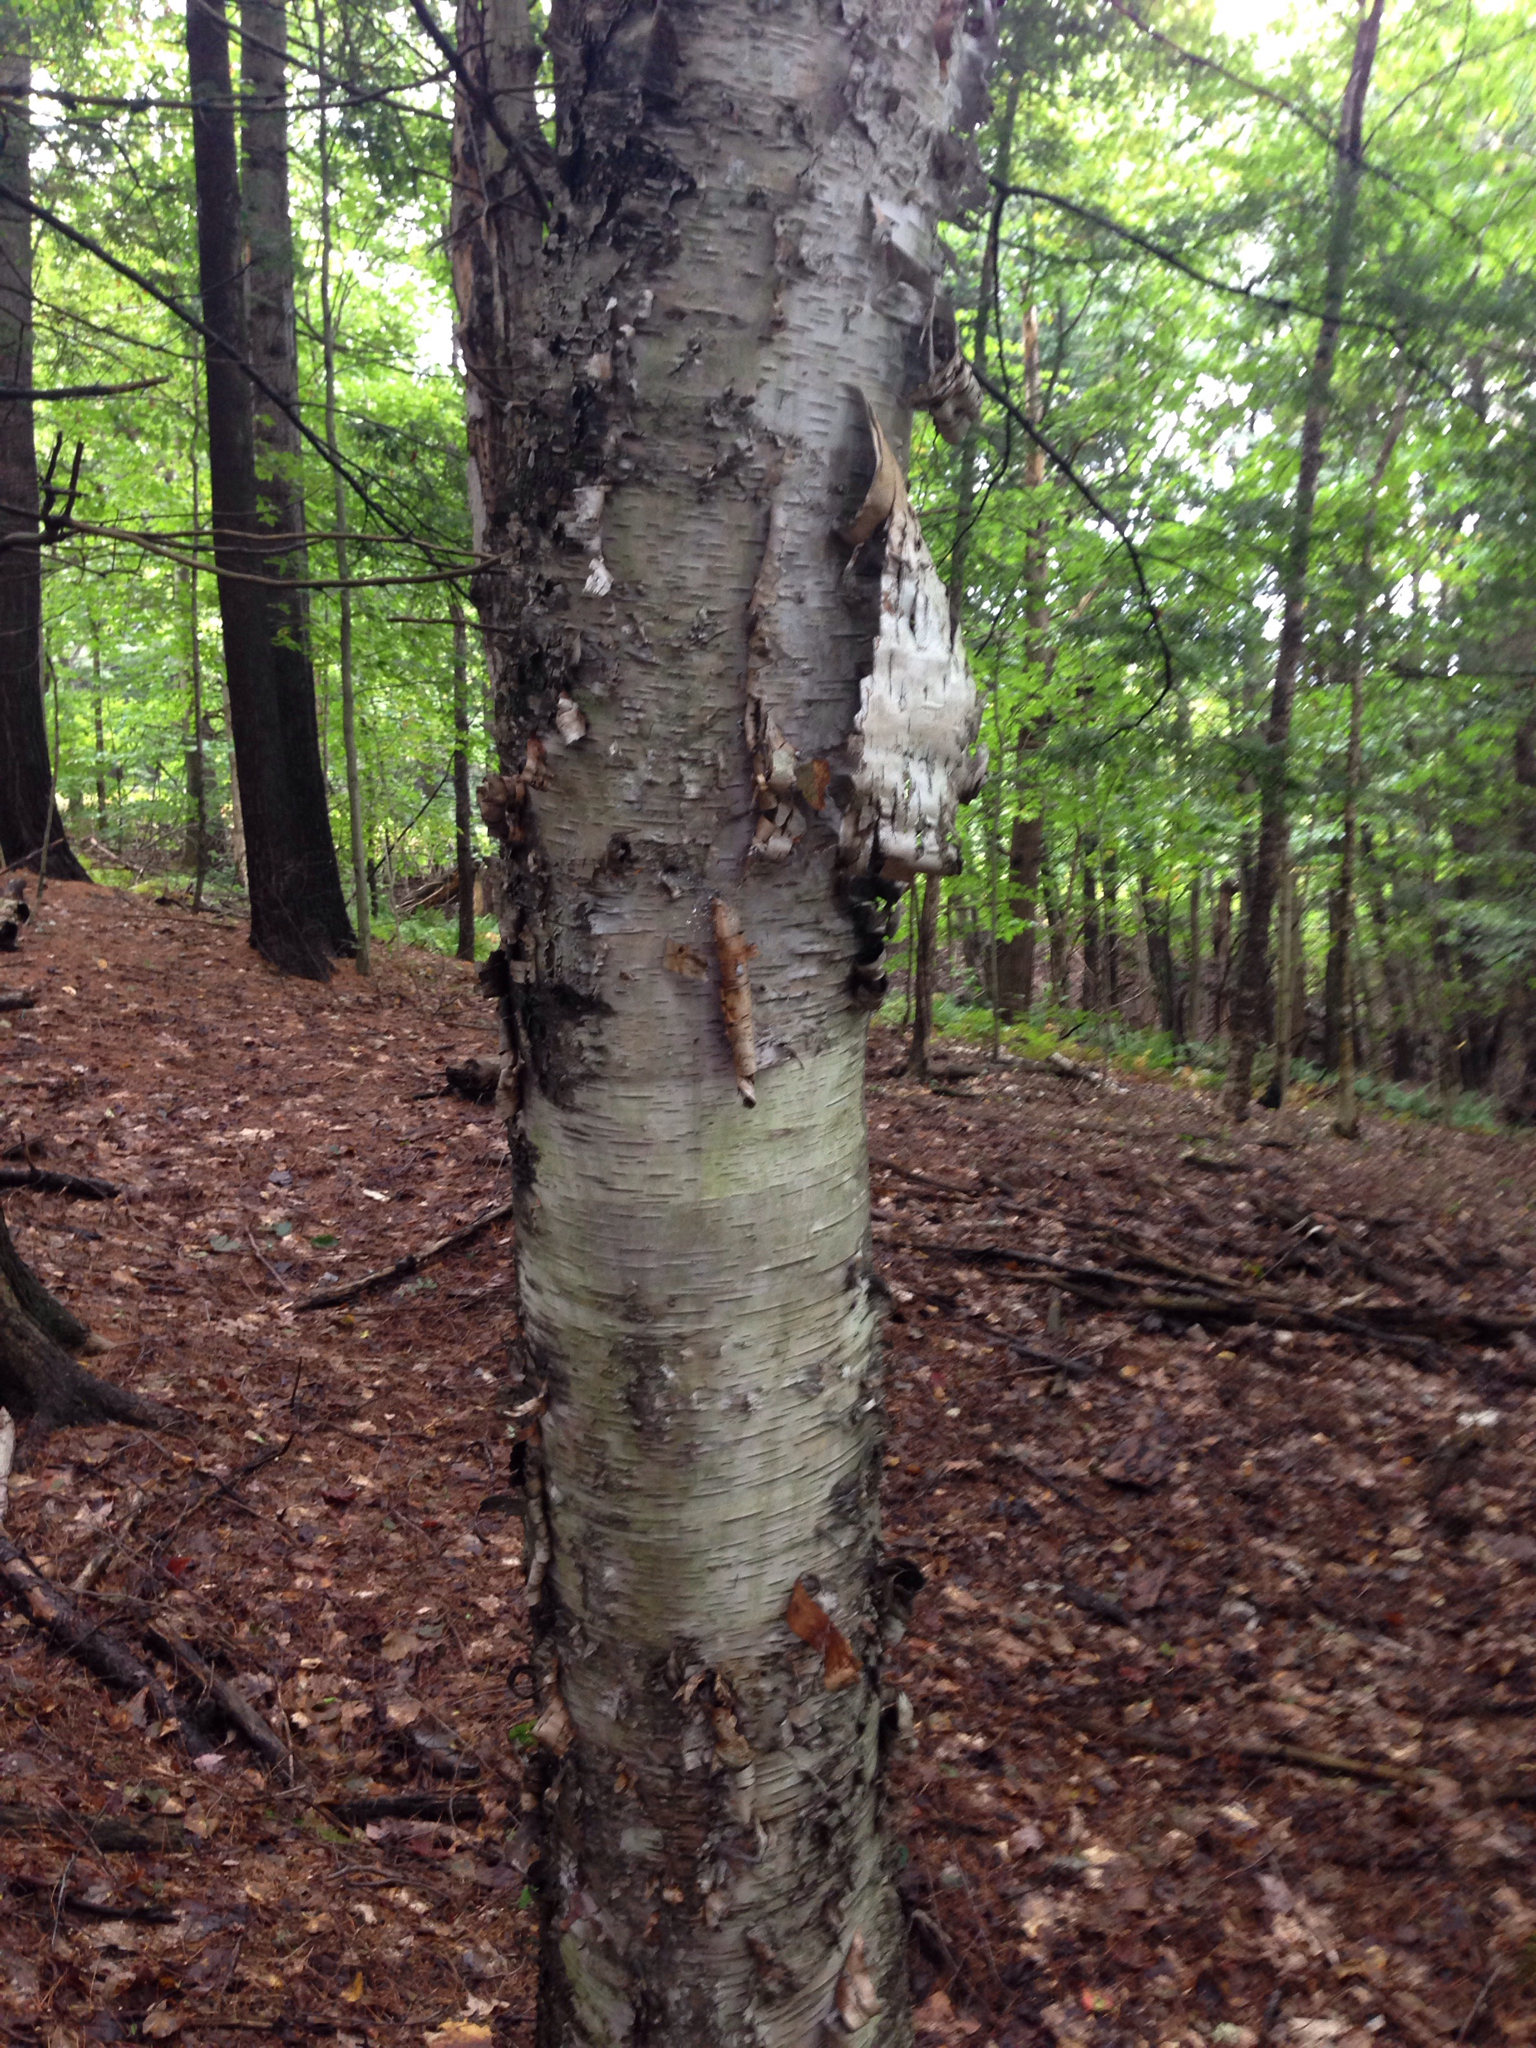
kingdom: Plantae
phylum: Tracheophyta
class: Magnoliopsida
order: Fagales
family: Betulaceae
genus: Betula
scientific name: Betula papyrifera
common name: Paper birch
